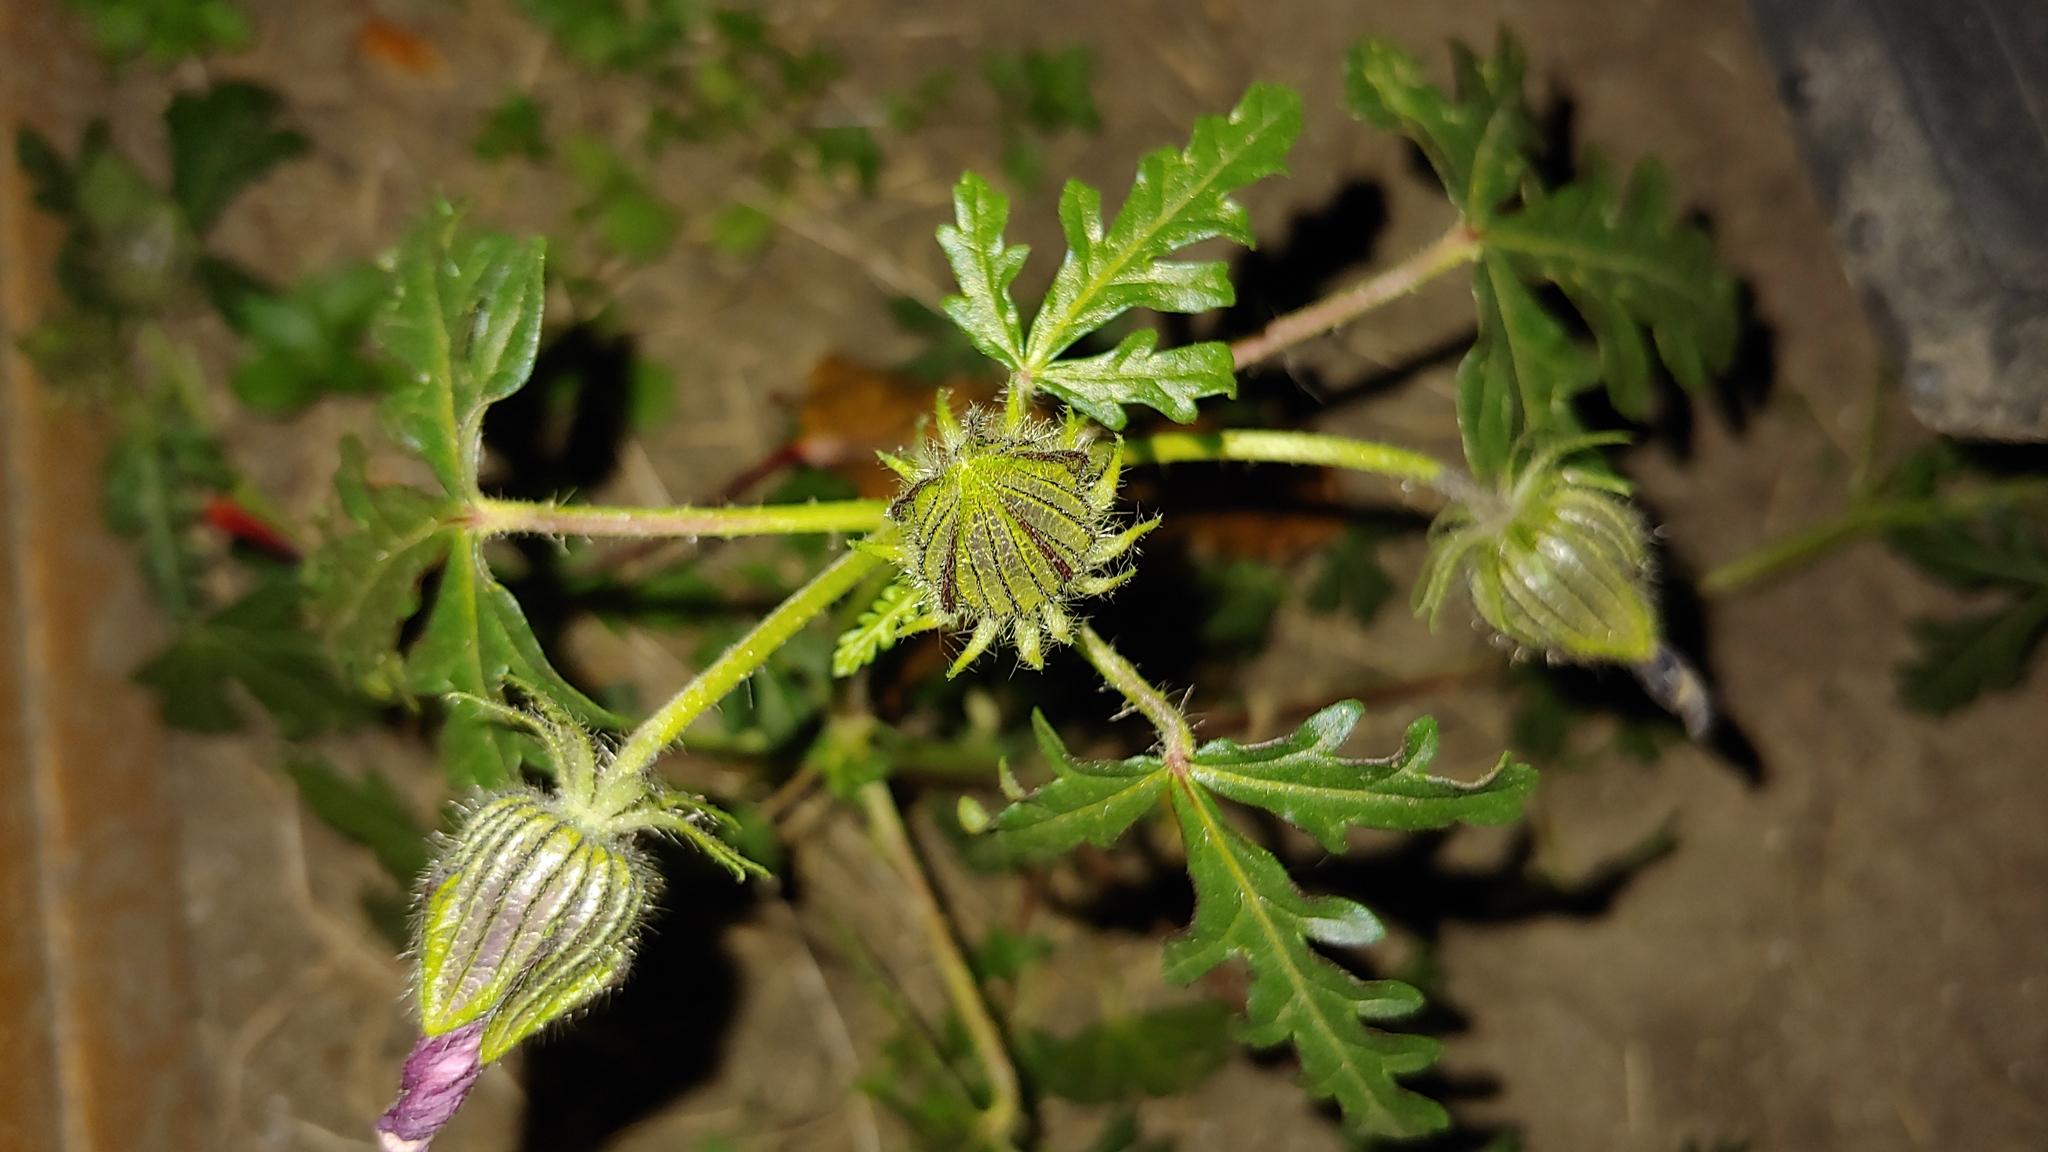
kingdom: Plantae
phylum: Tracheophyta
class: Magnoliopsida
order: Malvales
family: Malvaceae
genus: Hibiscus
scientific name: Hibiscus trionum
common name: Bladder ketmia
